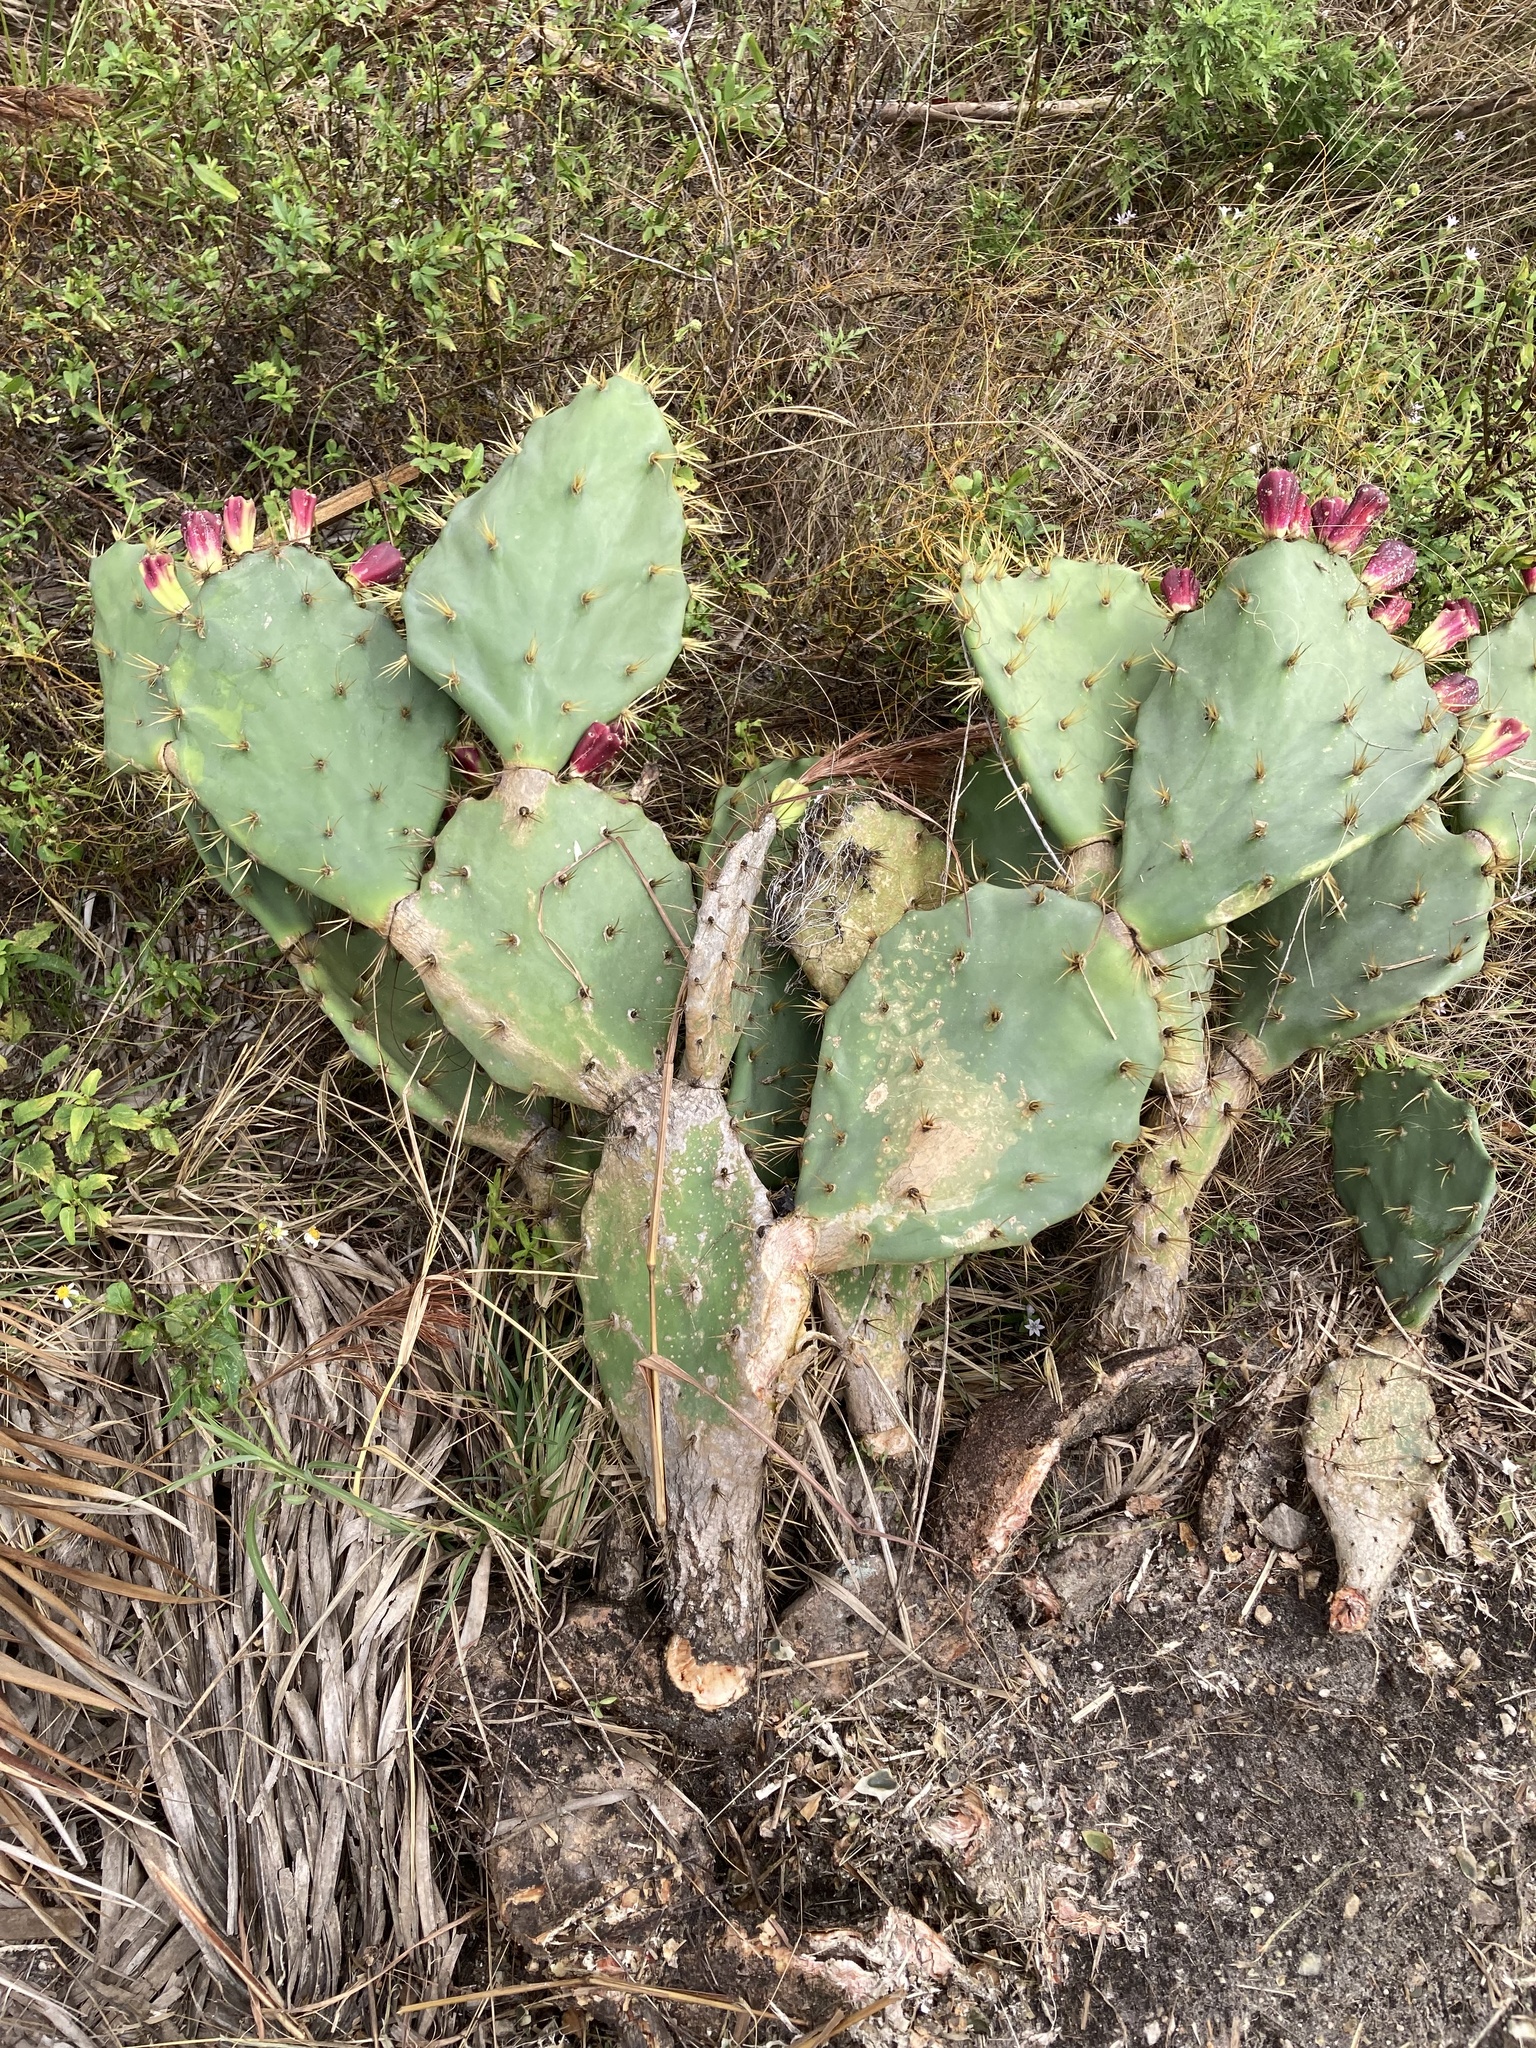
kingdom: Plantae
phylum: Tracheophyta
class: Magnoliopsida
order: Caryophyllales
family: Cactaceae
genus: Opuntia
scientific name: Opuntia dillenii
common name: Sour prickle
